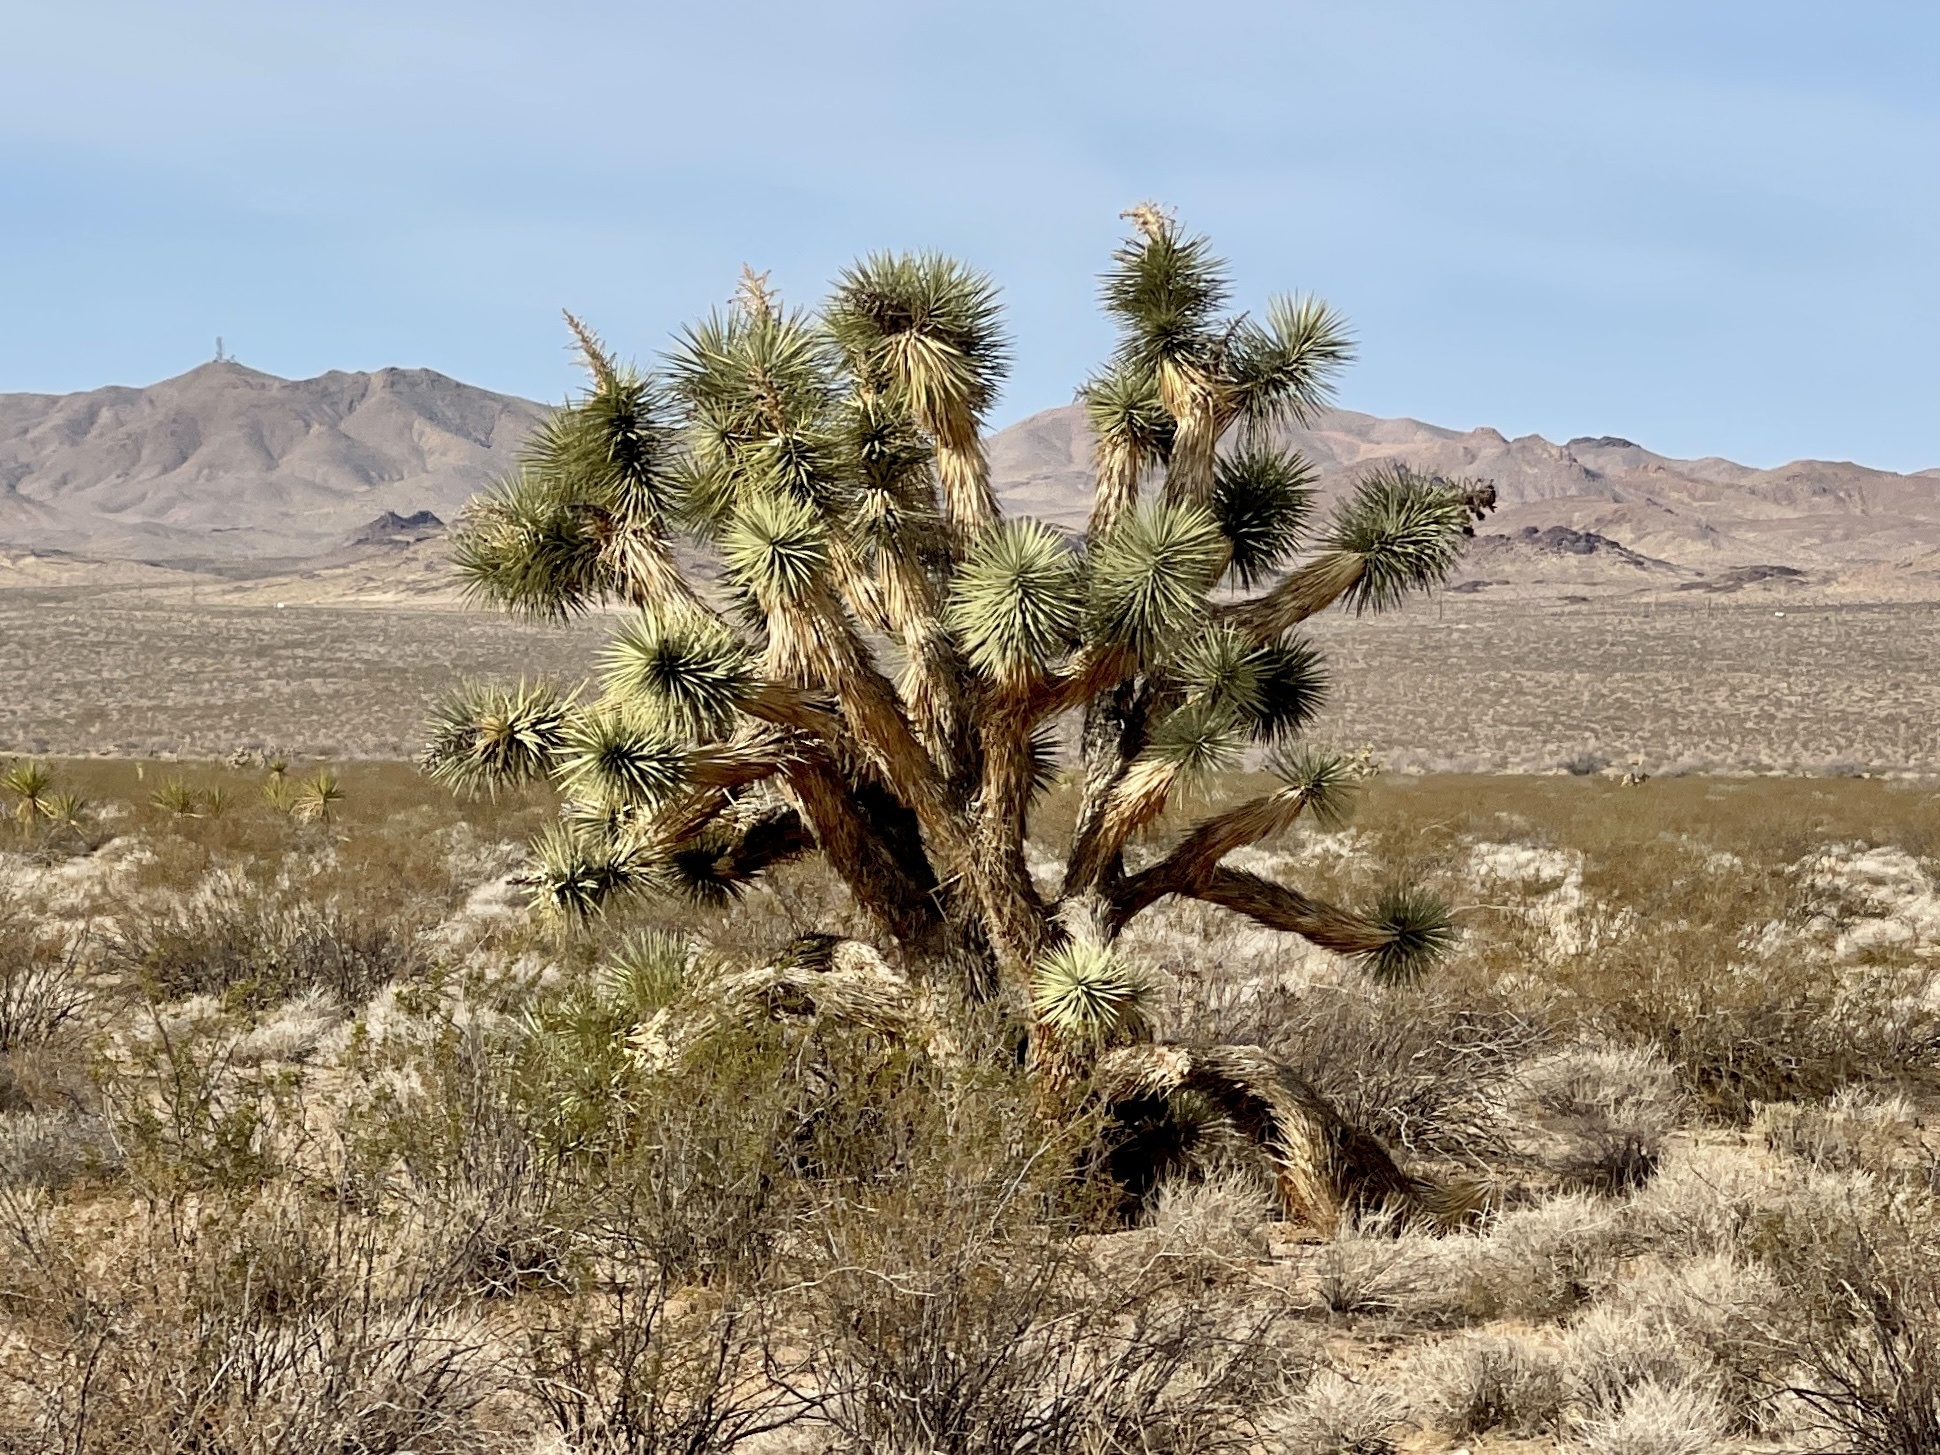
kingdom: Plantae
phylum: Tracheophyta
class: Liliopsida
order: Asparagales
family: Asparagaceae
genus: Yucca
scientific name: Yucca brevifolia
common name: Joshua tree
